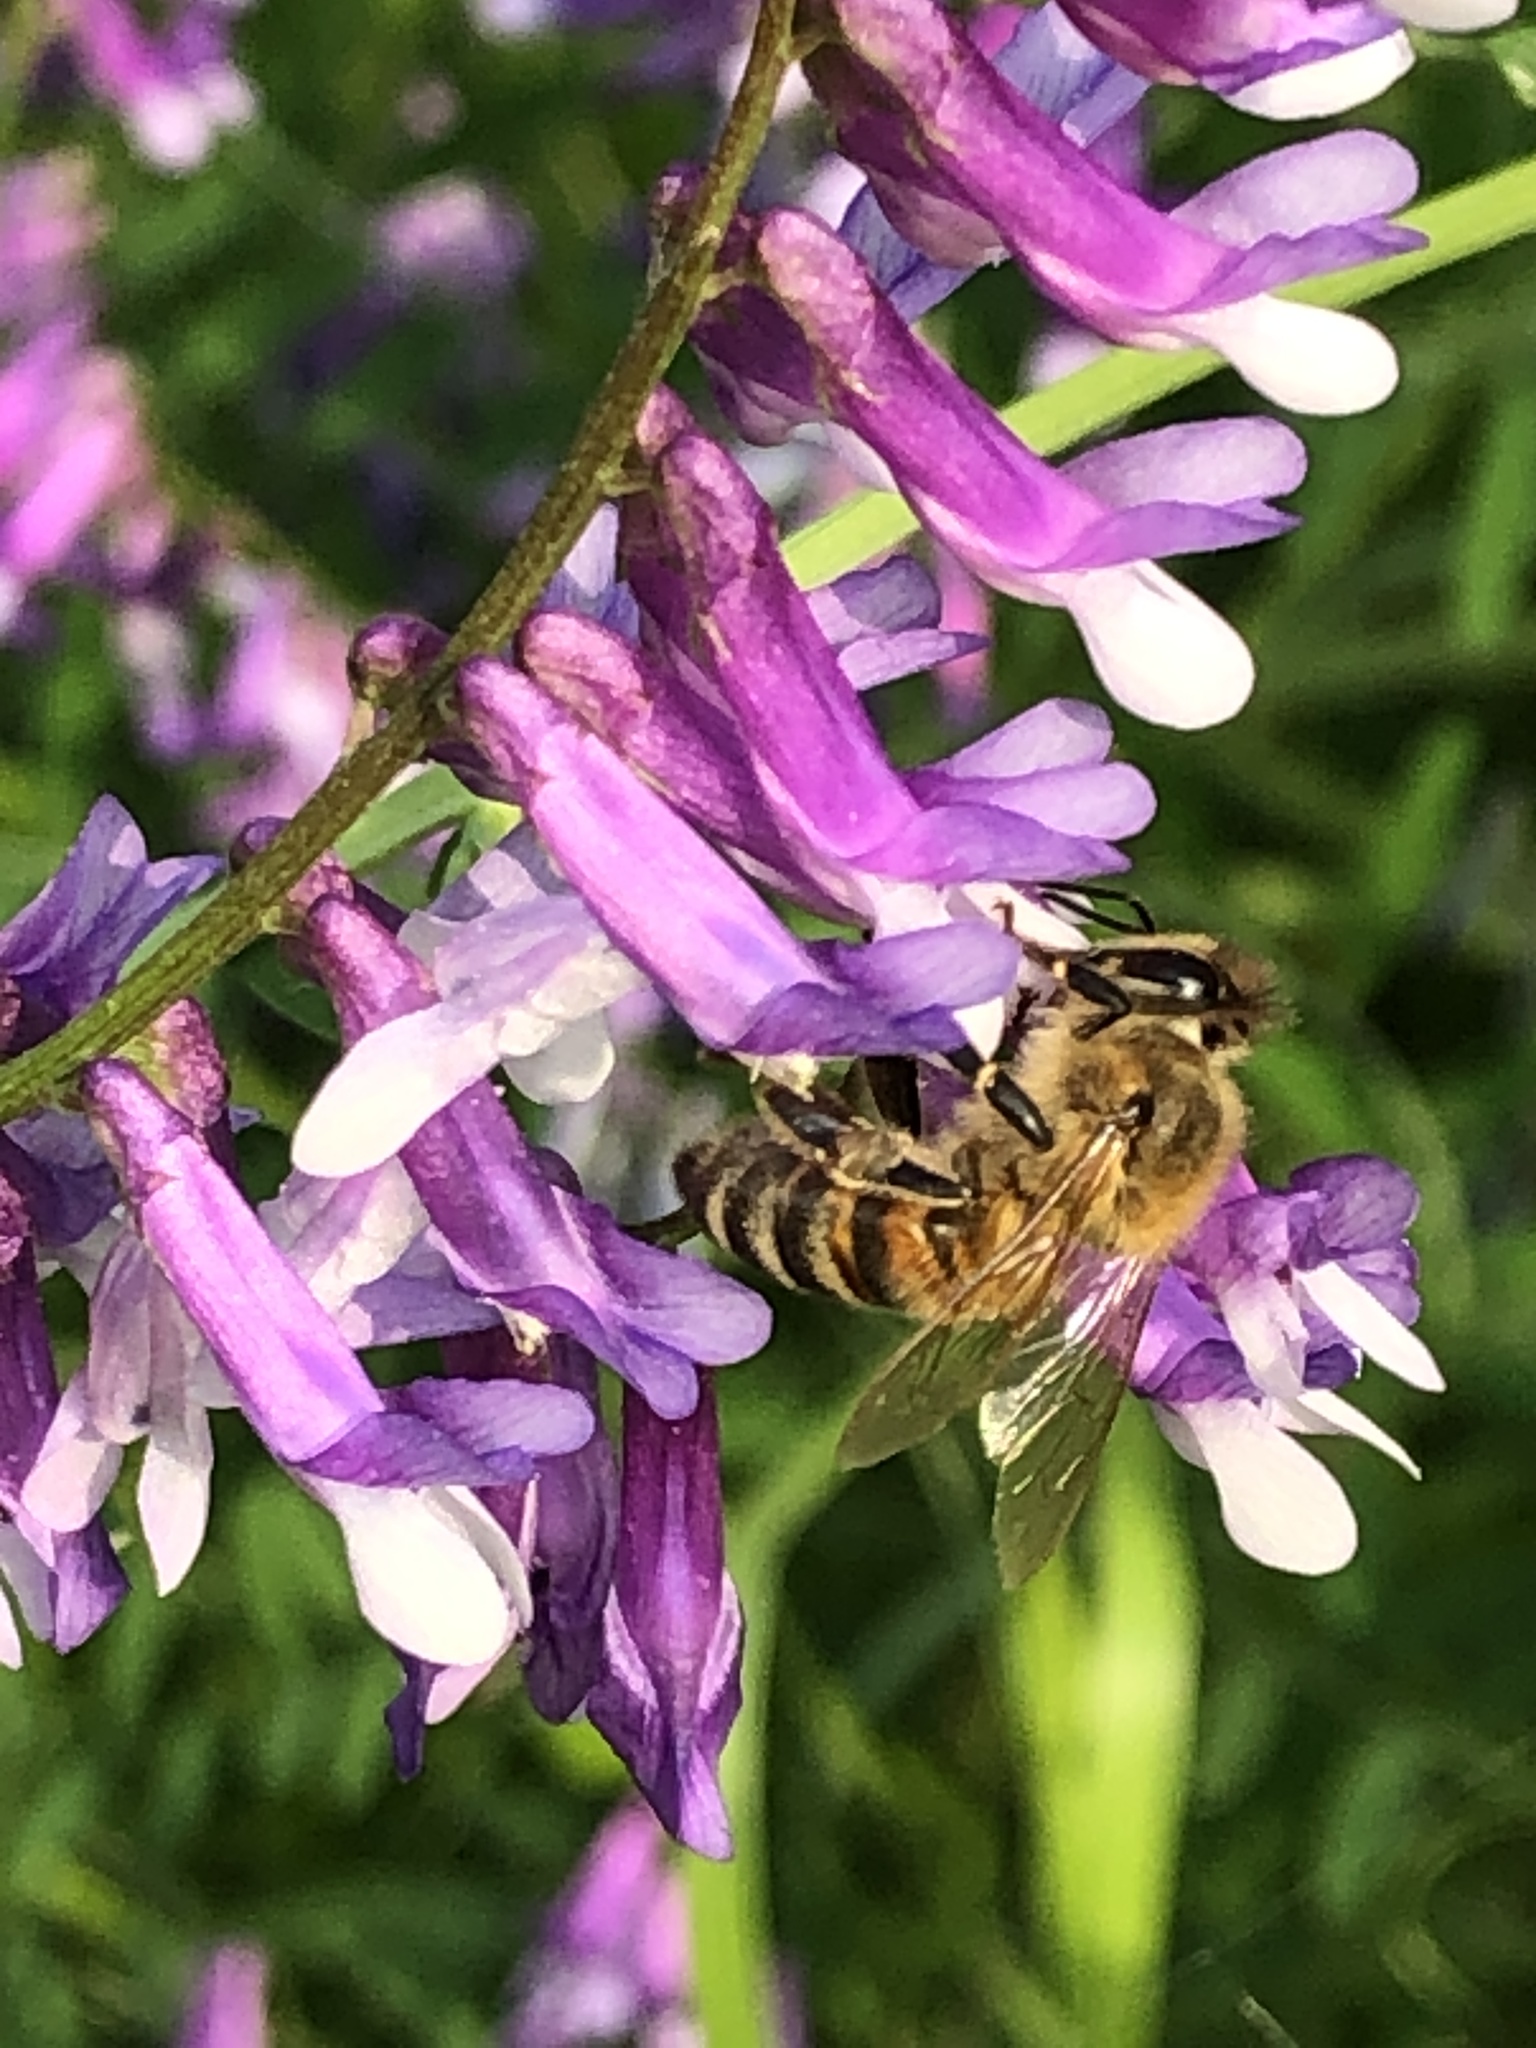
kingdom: Animalia
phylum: Arthropoda
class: Insecta
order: Hymenoptera
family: Apidae
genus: Apis
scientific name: Apis mellifera
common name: Honey bee
